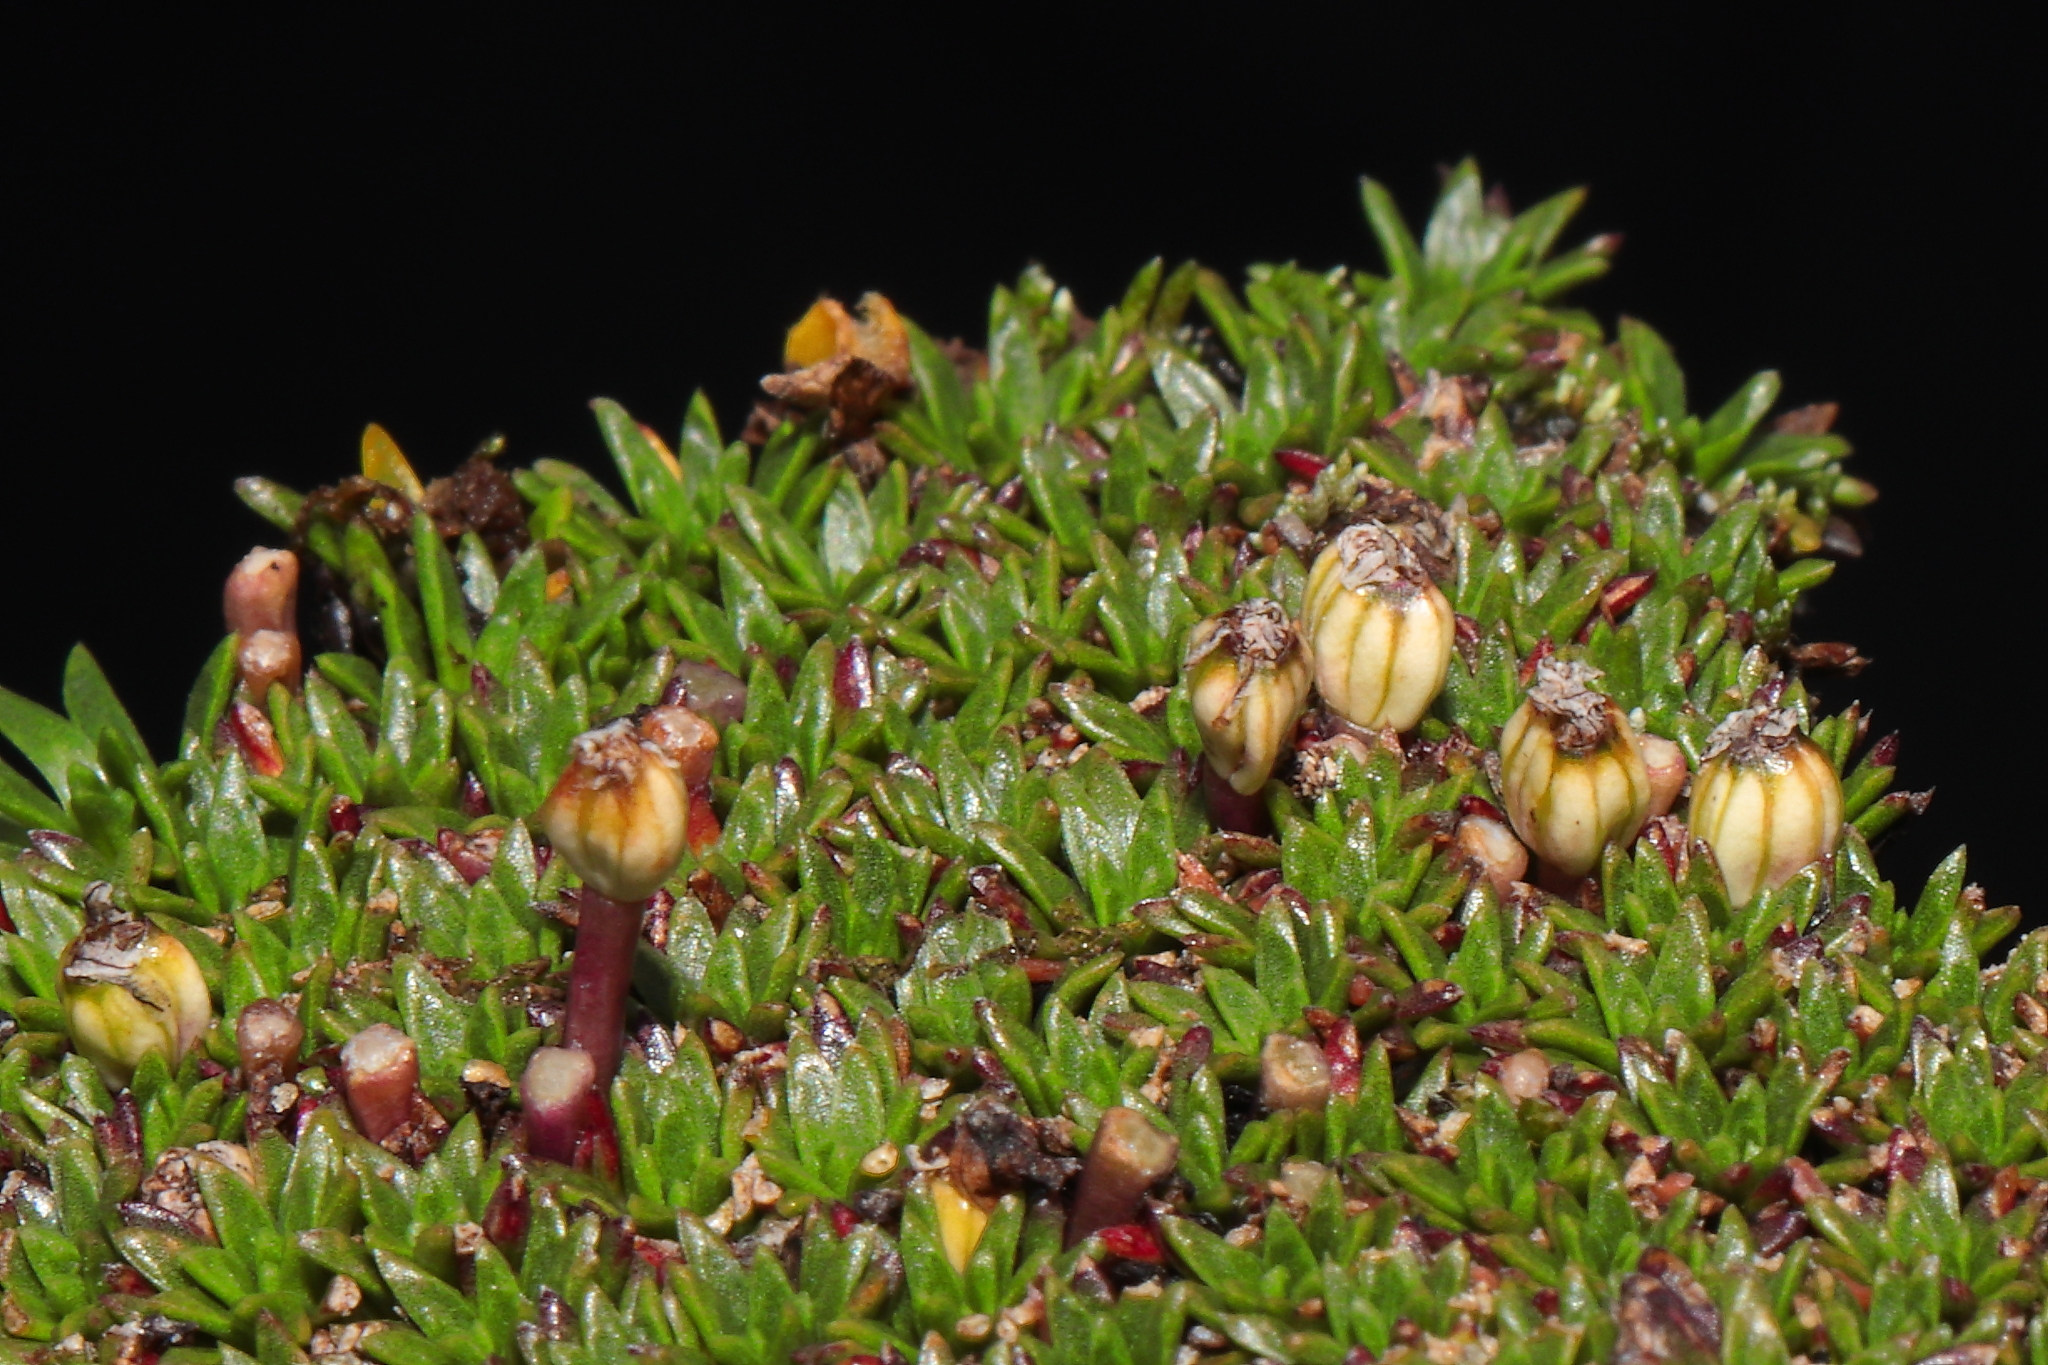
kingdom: Plantae
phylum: Tracheophyta
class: Magnoliopsida
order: Apiales
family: Apiaceae
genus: Azorella
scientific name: Azorella diapensioides
